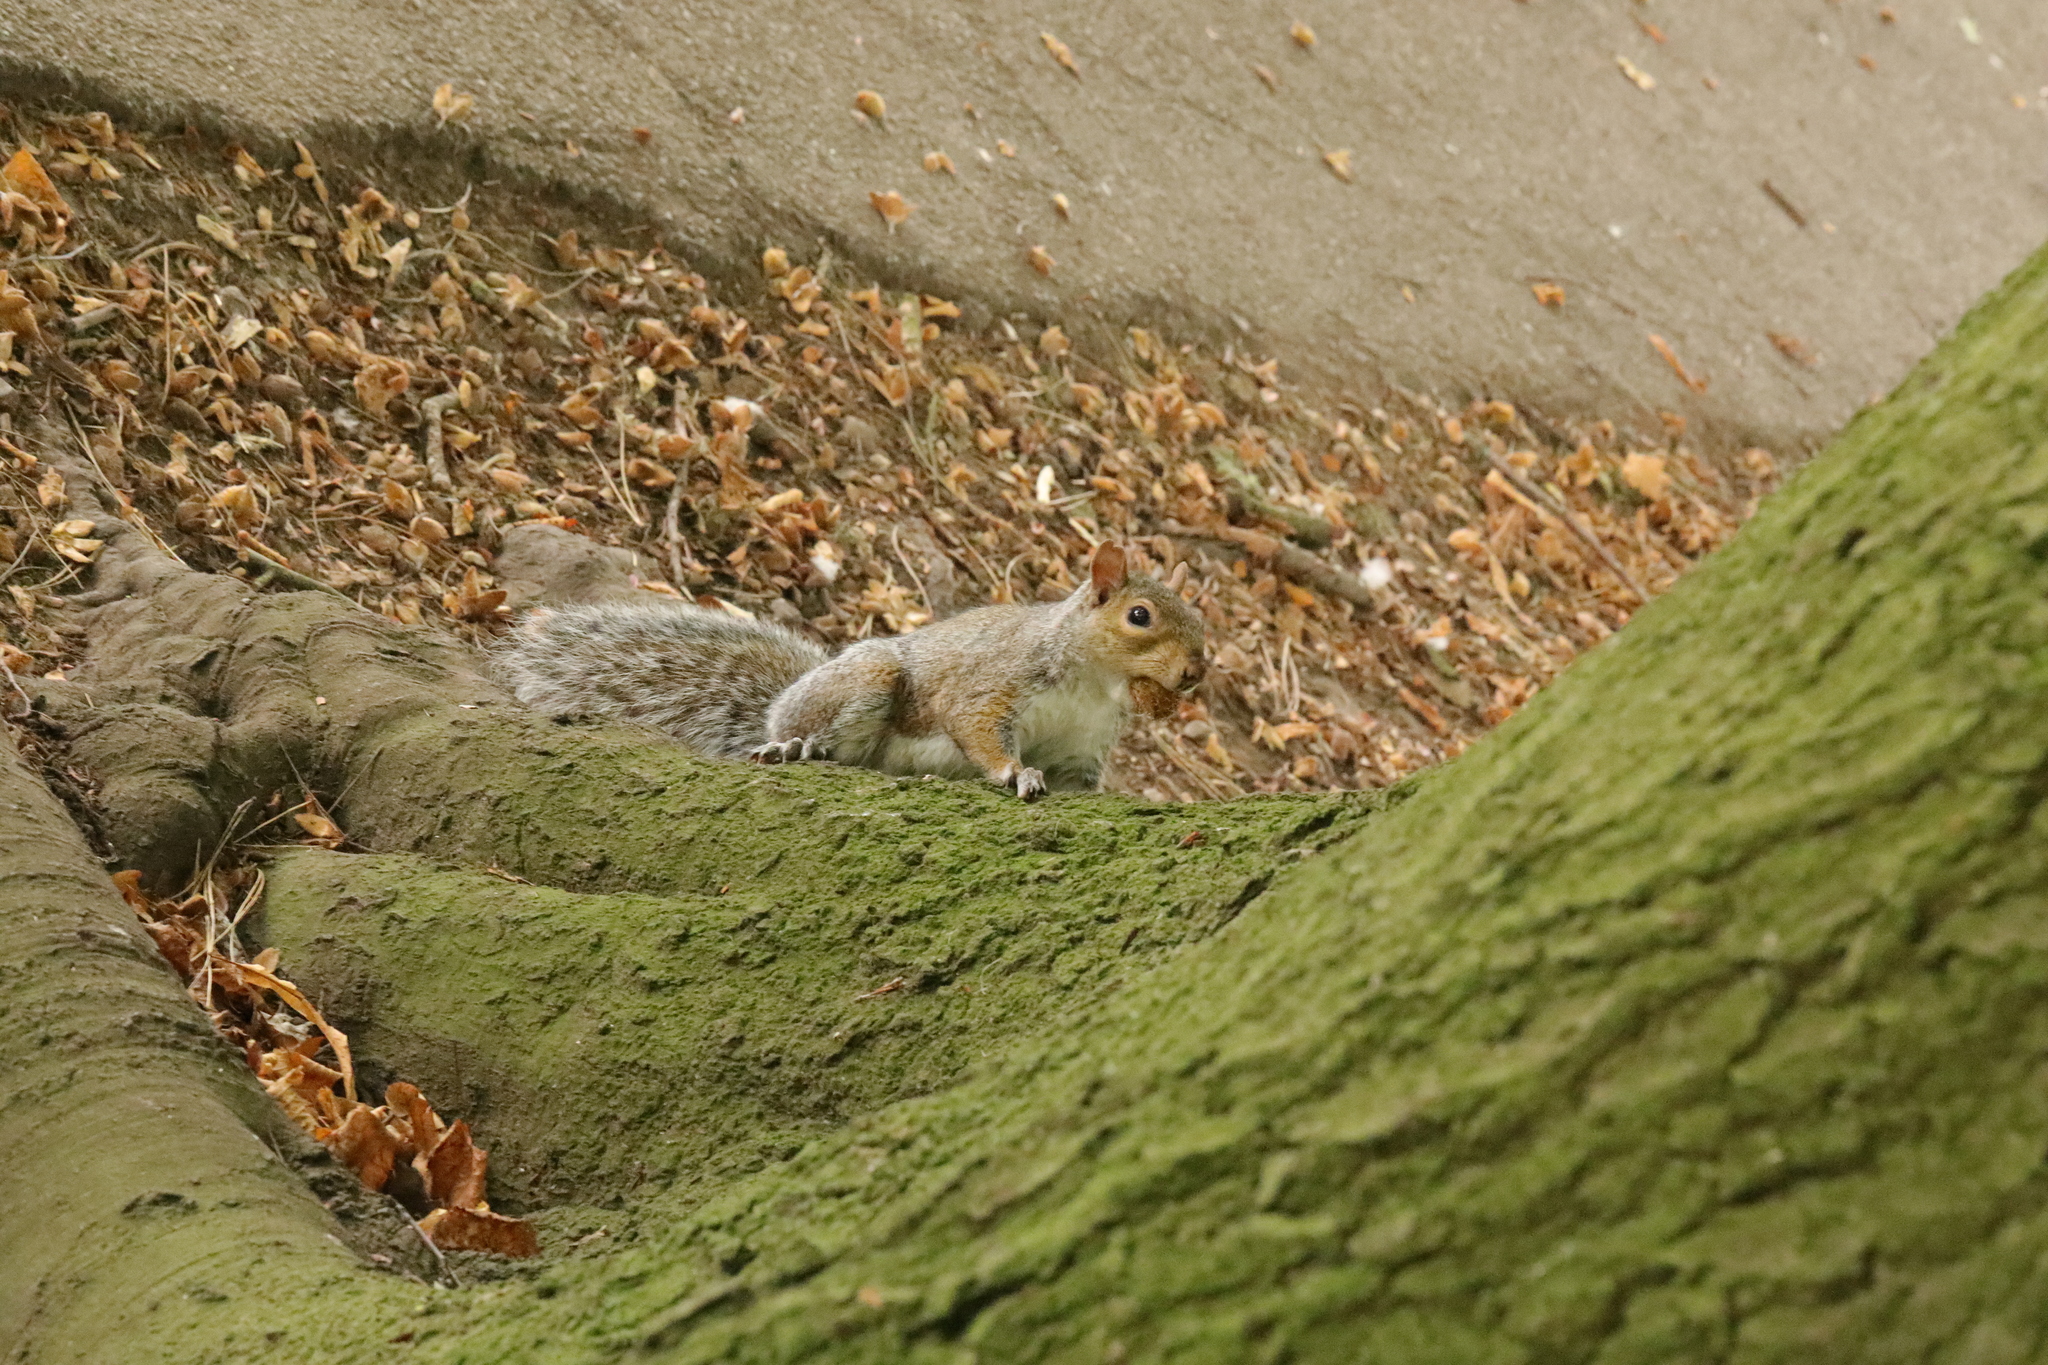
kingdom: Animalia
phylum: Chordata
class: Mammalia
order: Rodentia
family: Sciuridae
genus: Sciurus
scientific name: Sciurus carolinensis
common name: Eastern gray squirrel
